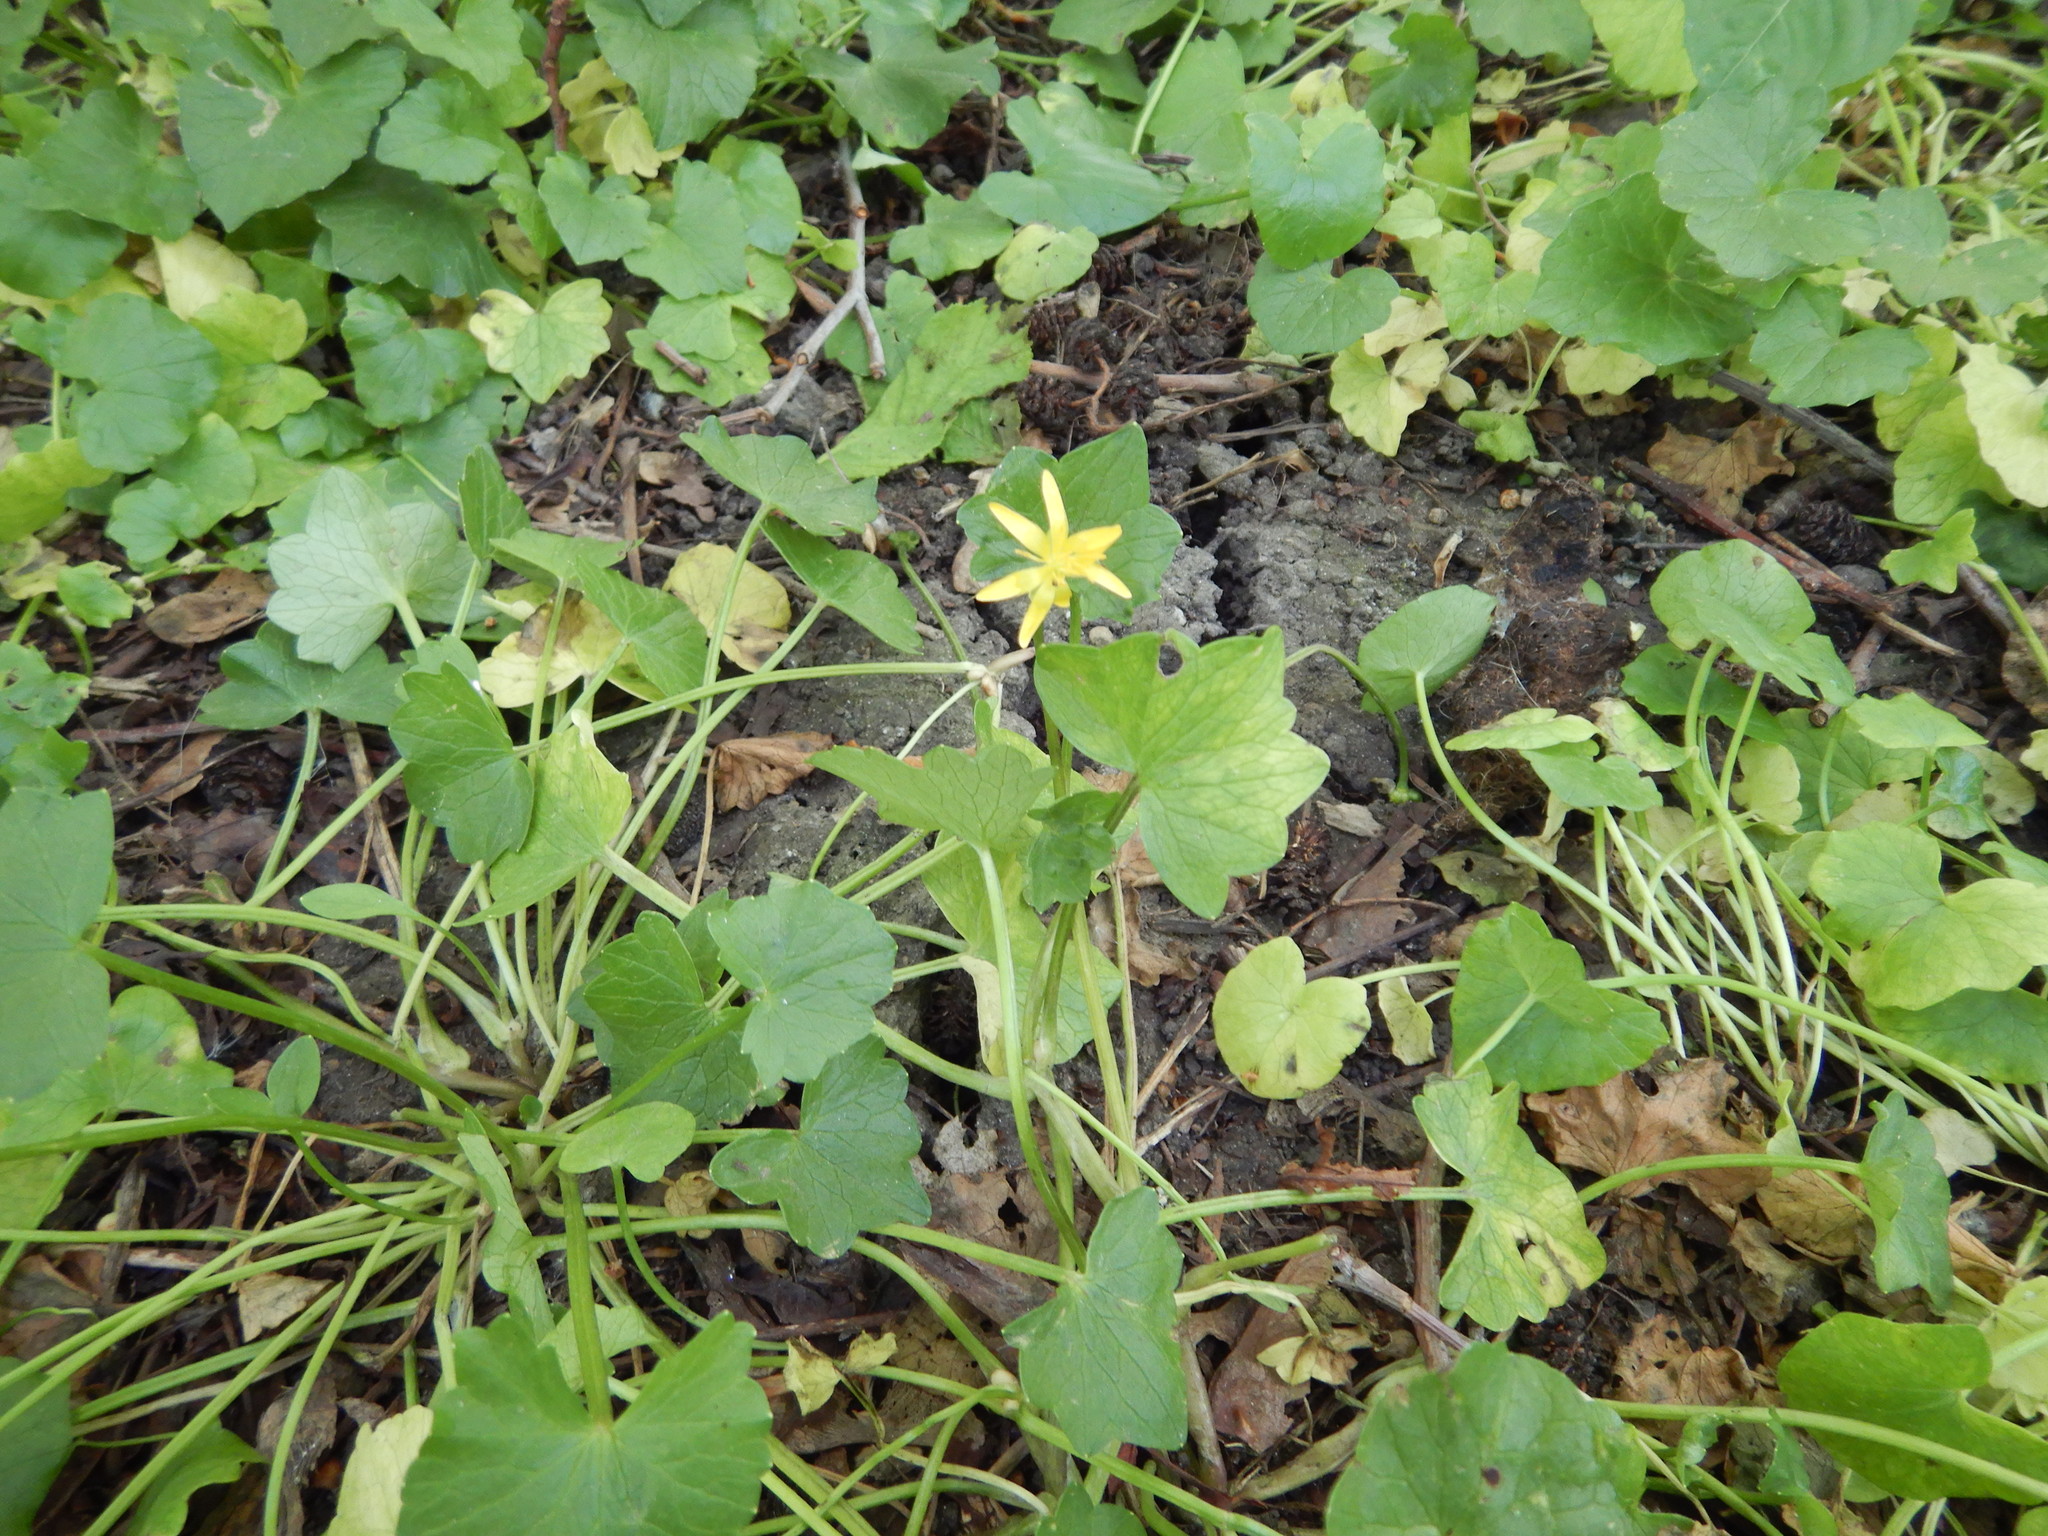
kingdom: Plantae
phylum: Tracheophyta
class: Magnoliopsida
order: Ranunculales
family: Ranunculaceae
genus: Ficaria
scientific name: Ficaria verna
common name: Lesser celandine
